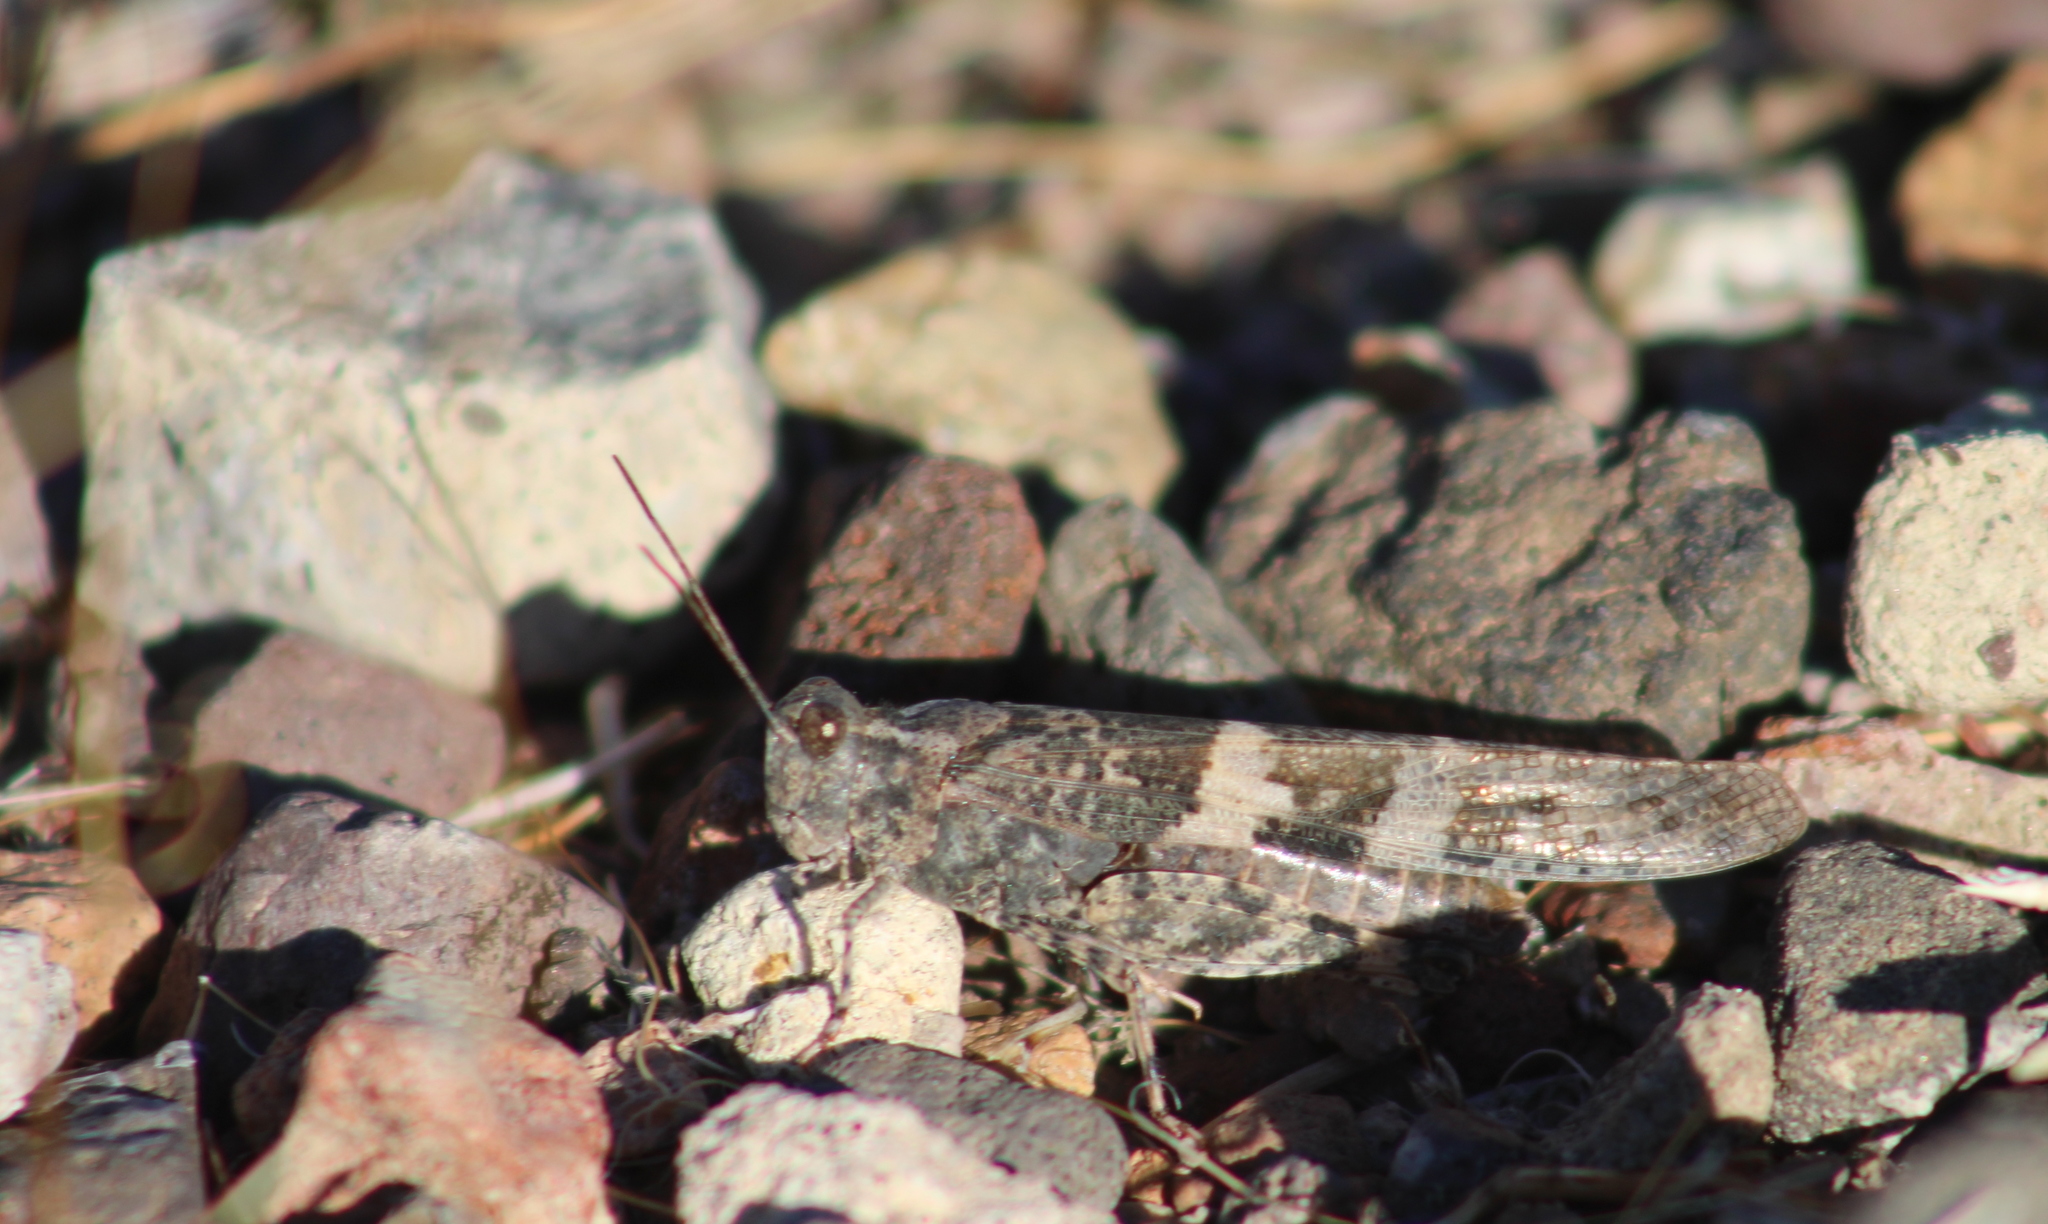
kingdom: Animalia
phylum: Arthropoda
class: Insecta
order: Orthoptera
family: Acrididae
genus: Trimerotropis
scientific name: Trimerotropis pallidipennis
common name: Pallid-winged grasshopper
